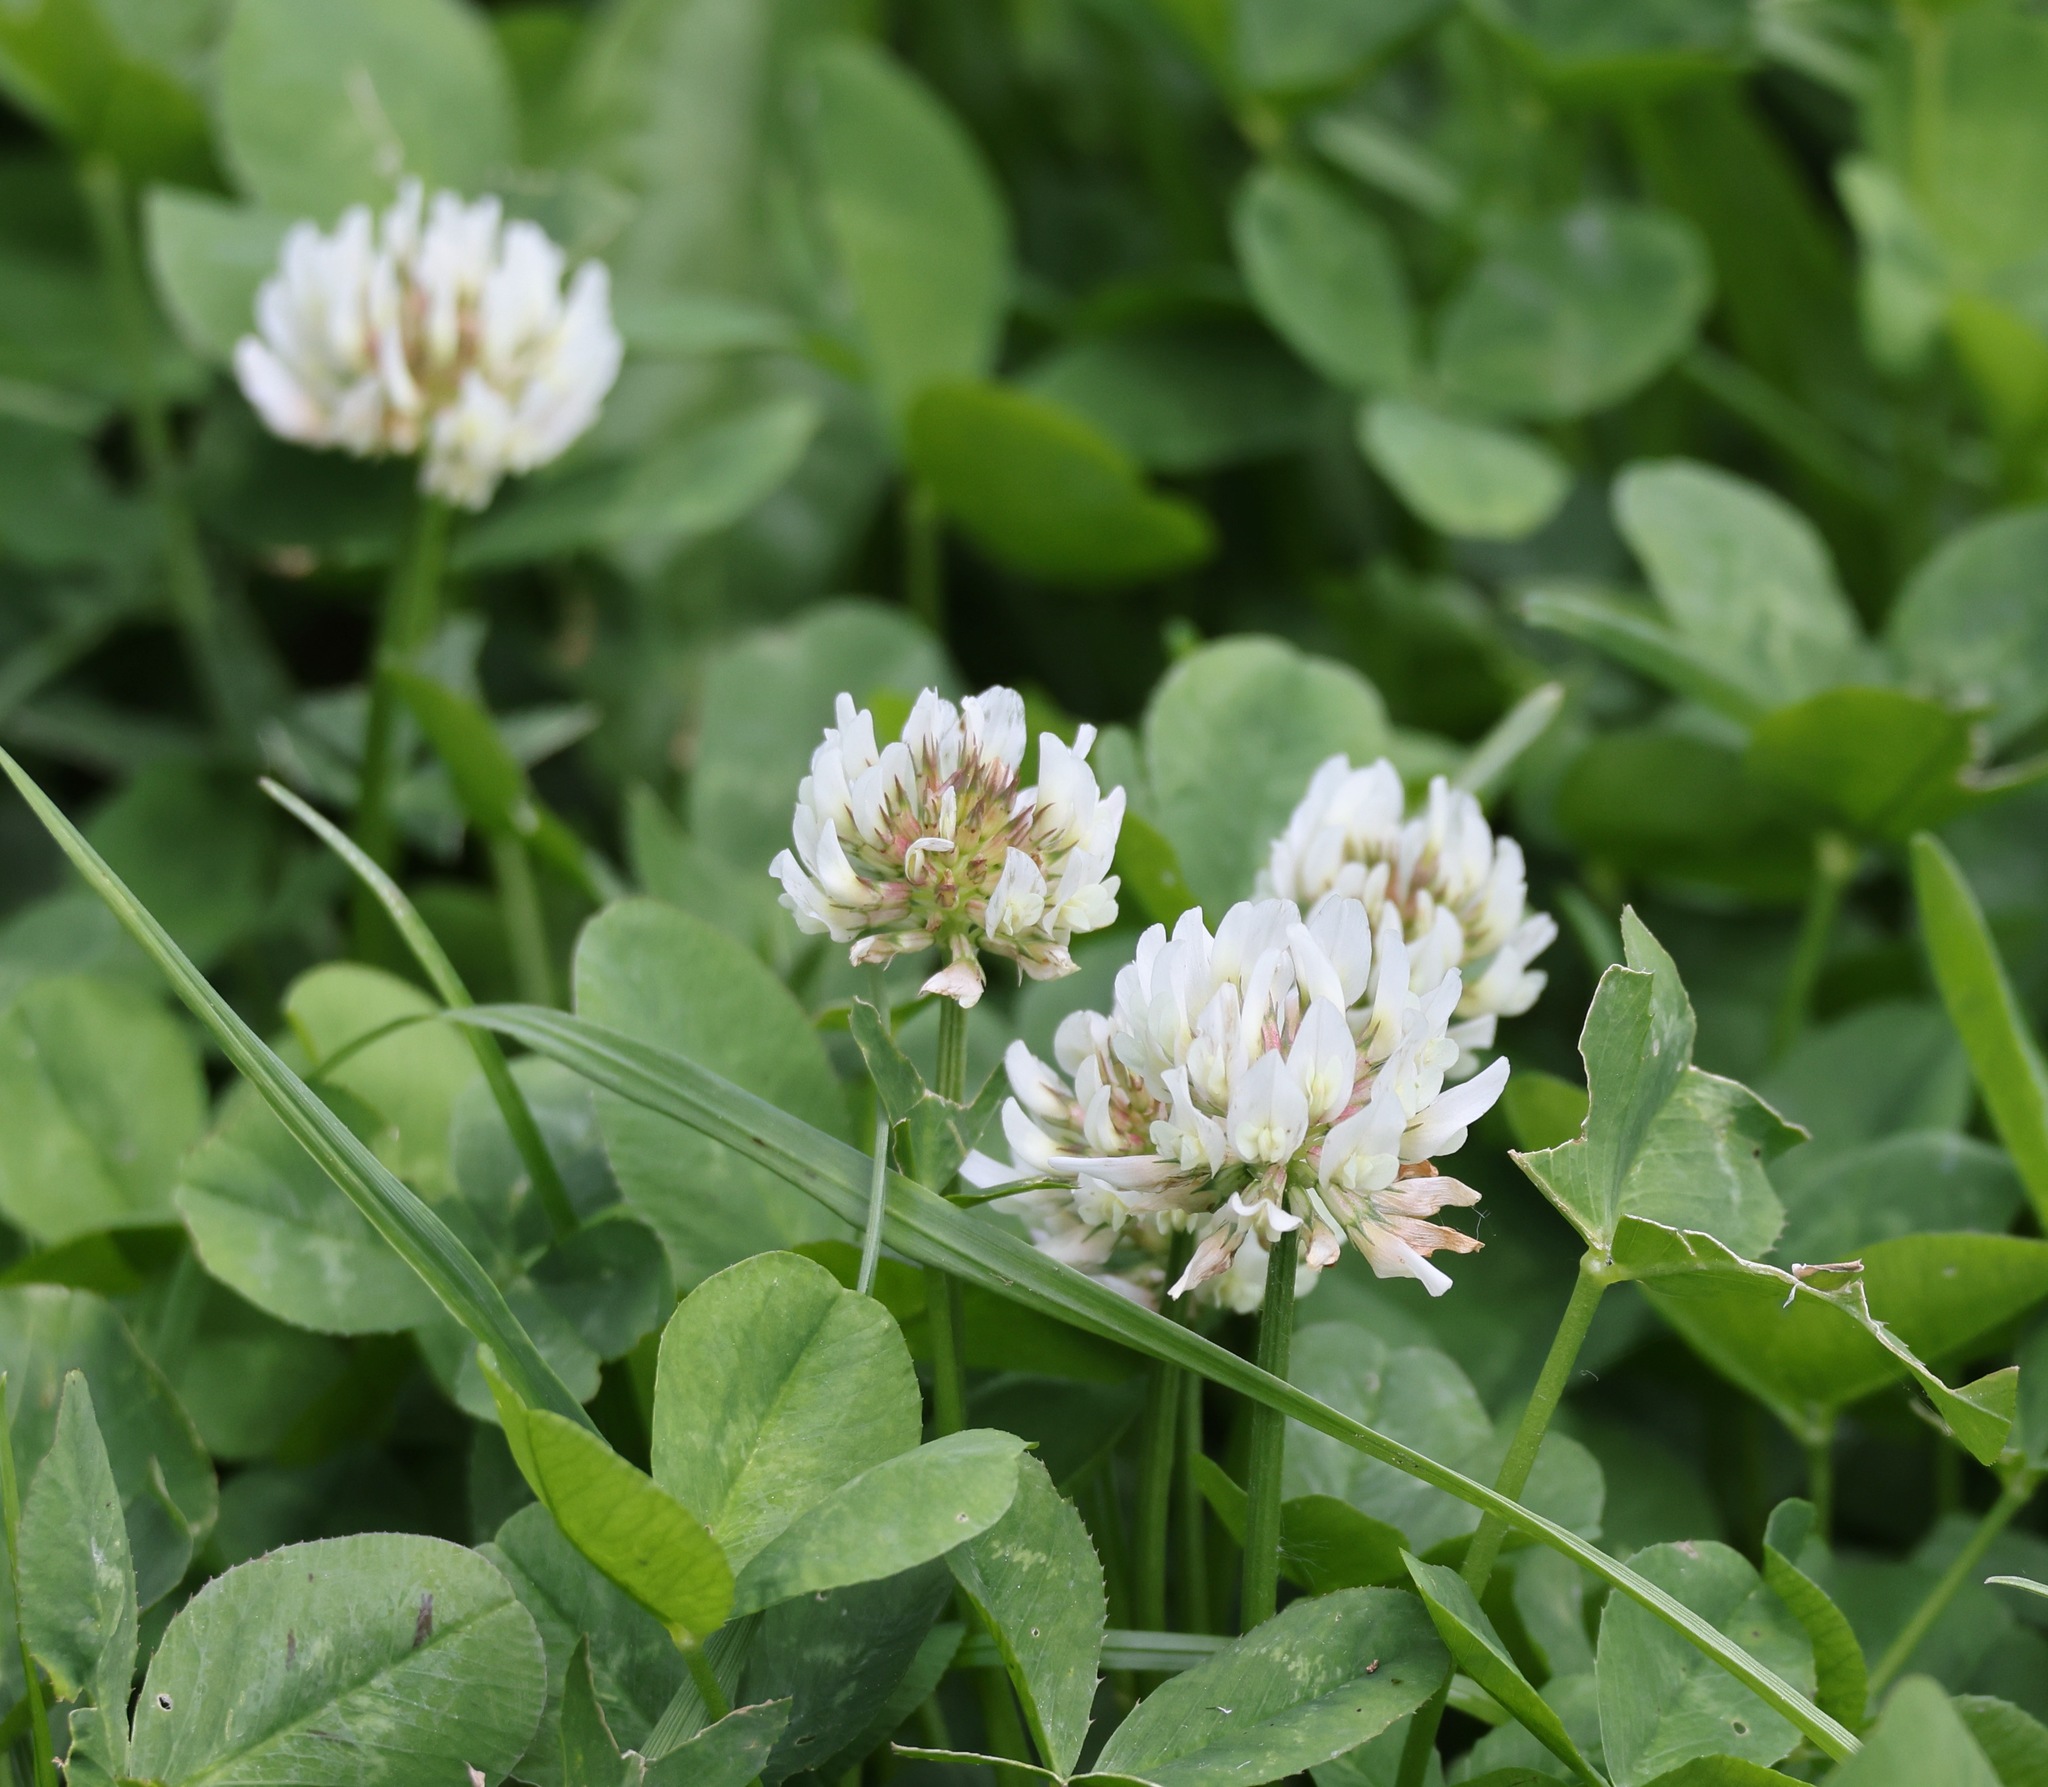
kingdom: Plantae
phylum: Tracheophyta
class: Magnoliopsida
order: Fabales
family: Fabaceae
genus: Trifolium
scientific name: Trifolium repens
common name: White clover
